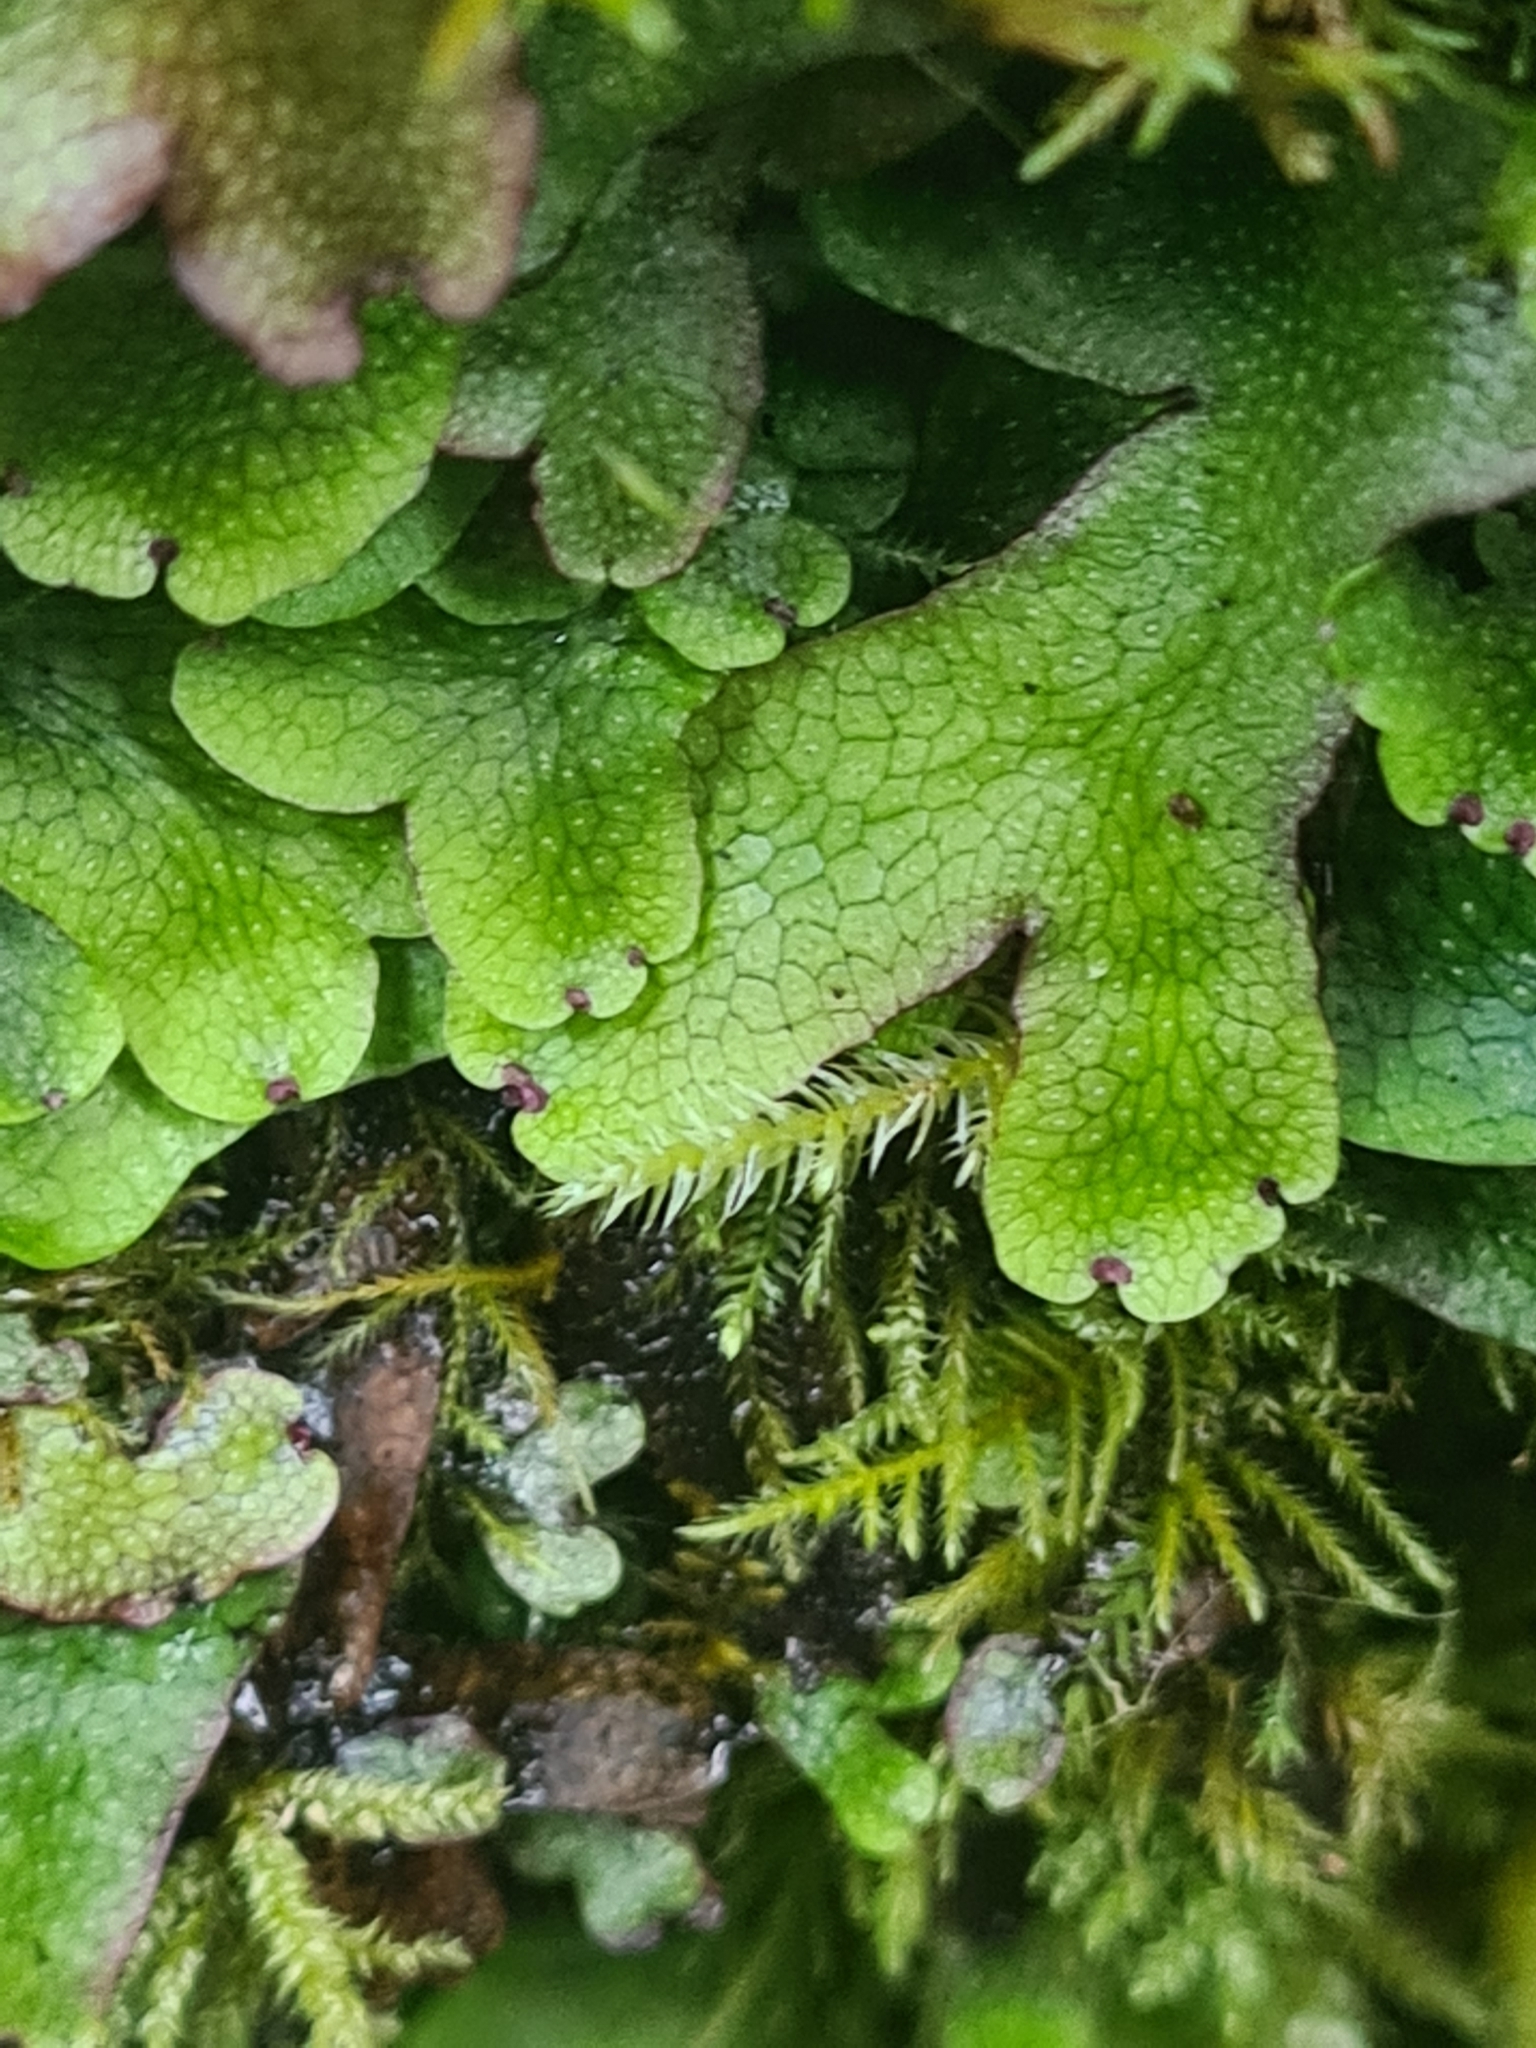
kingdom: Plantae
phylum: Marchantiophyta
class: Marchantiopsida
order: Marchantiales
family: Conocephalaceae
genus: Conocephalum
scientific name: Conocephalum salebrosum
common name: Cat-tongue liverwort
